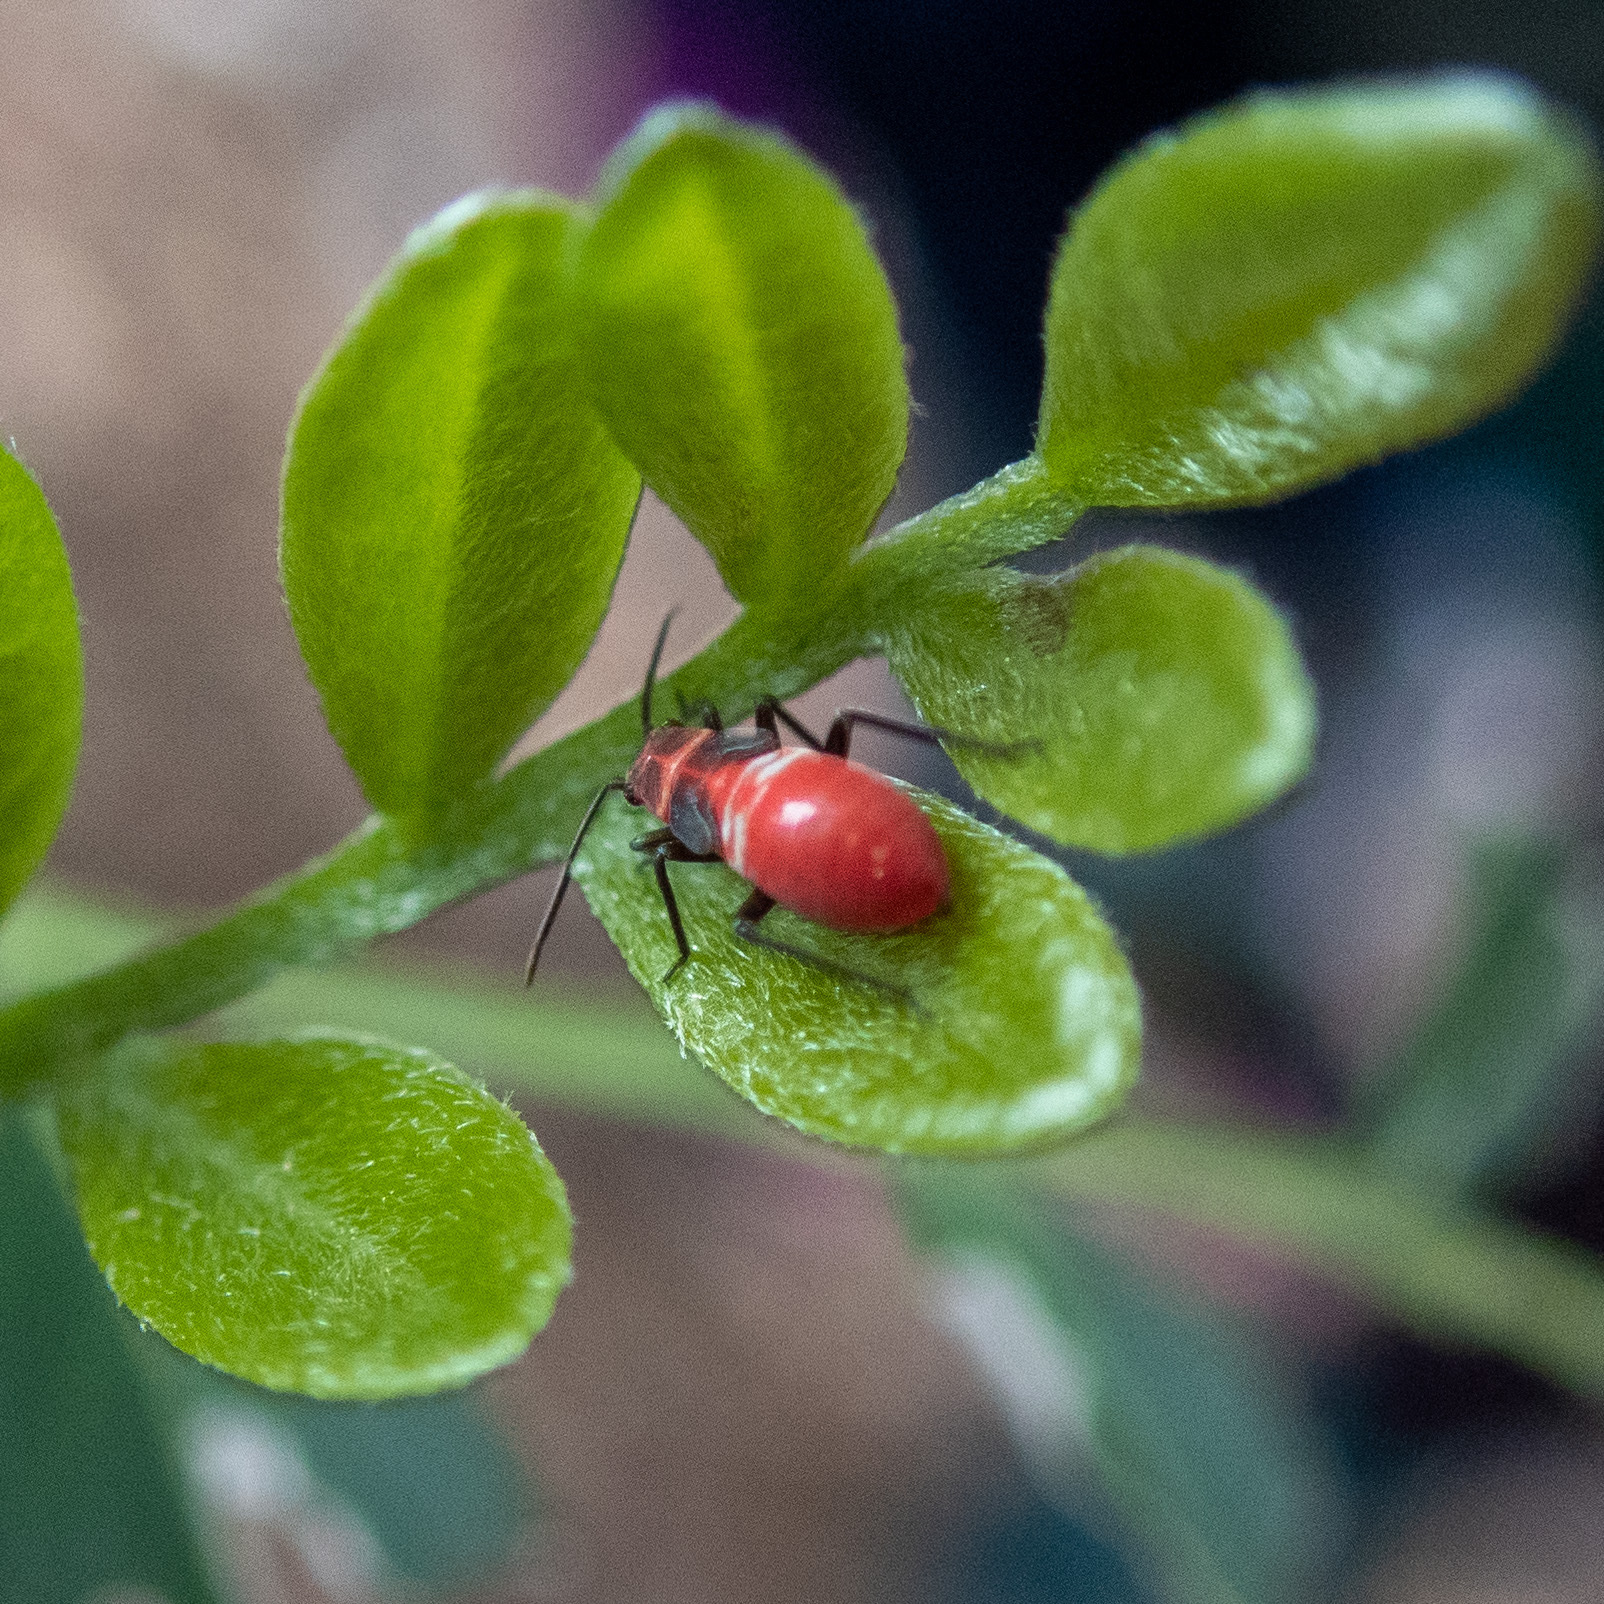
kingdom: Animalia
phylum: Arthropoda
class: Insecta
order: Hemiptera
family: Miridae
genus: Lopidea
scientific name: Lopidea major
